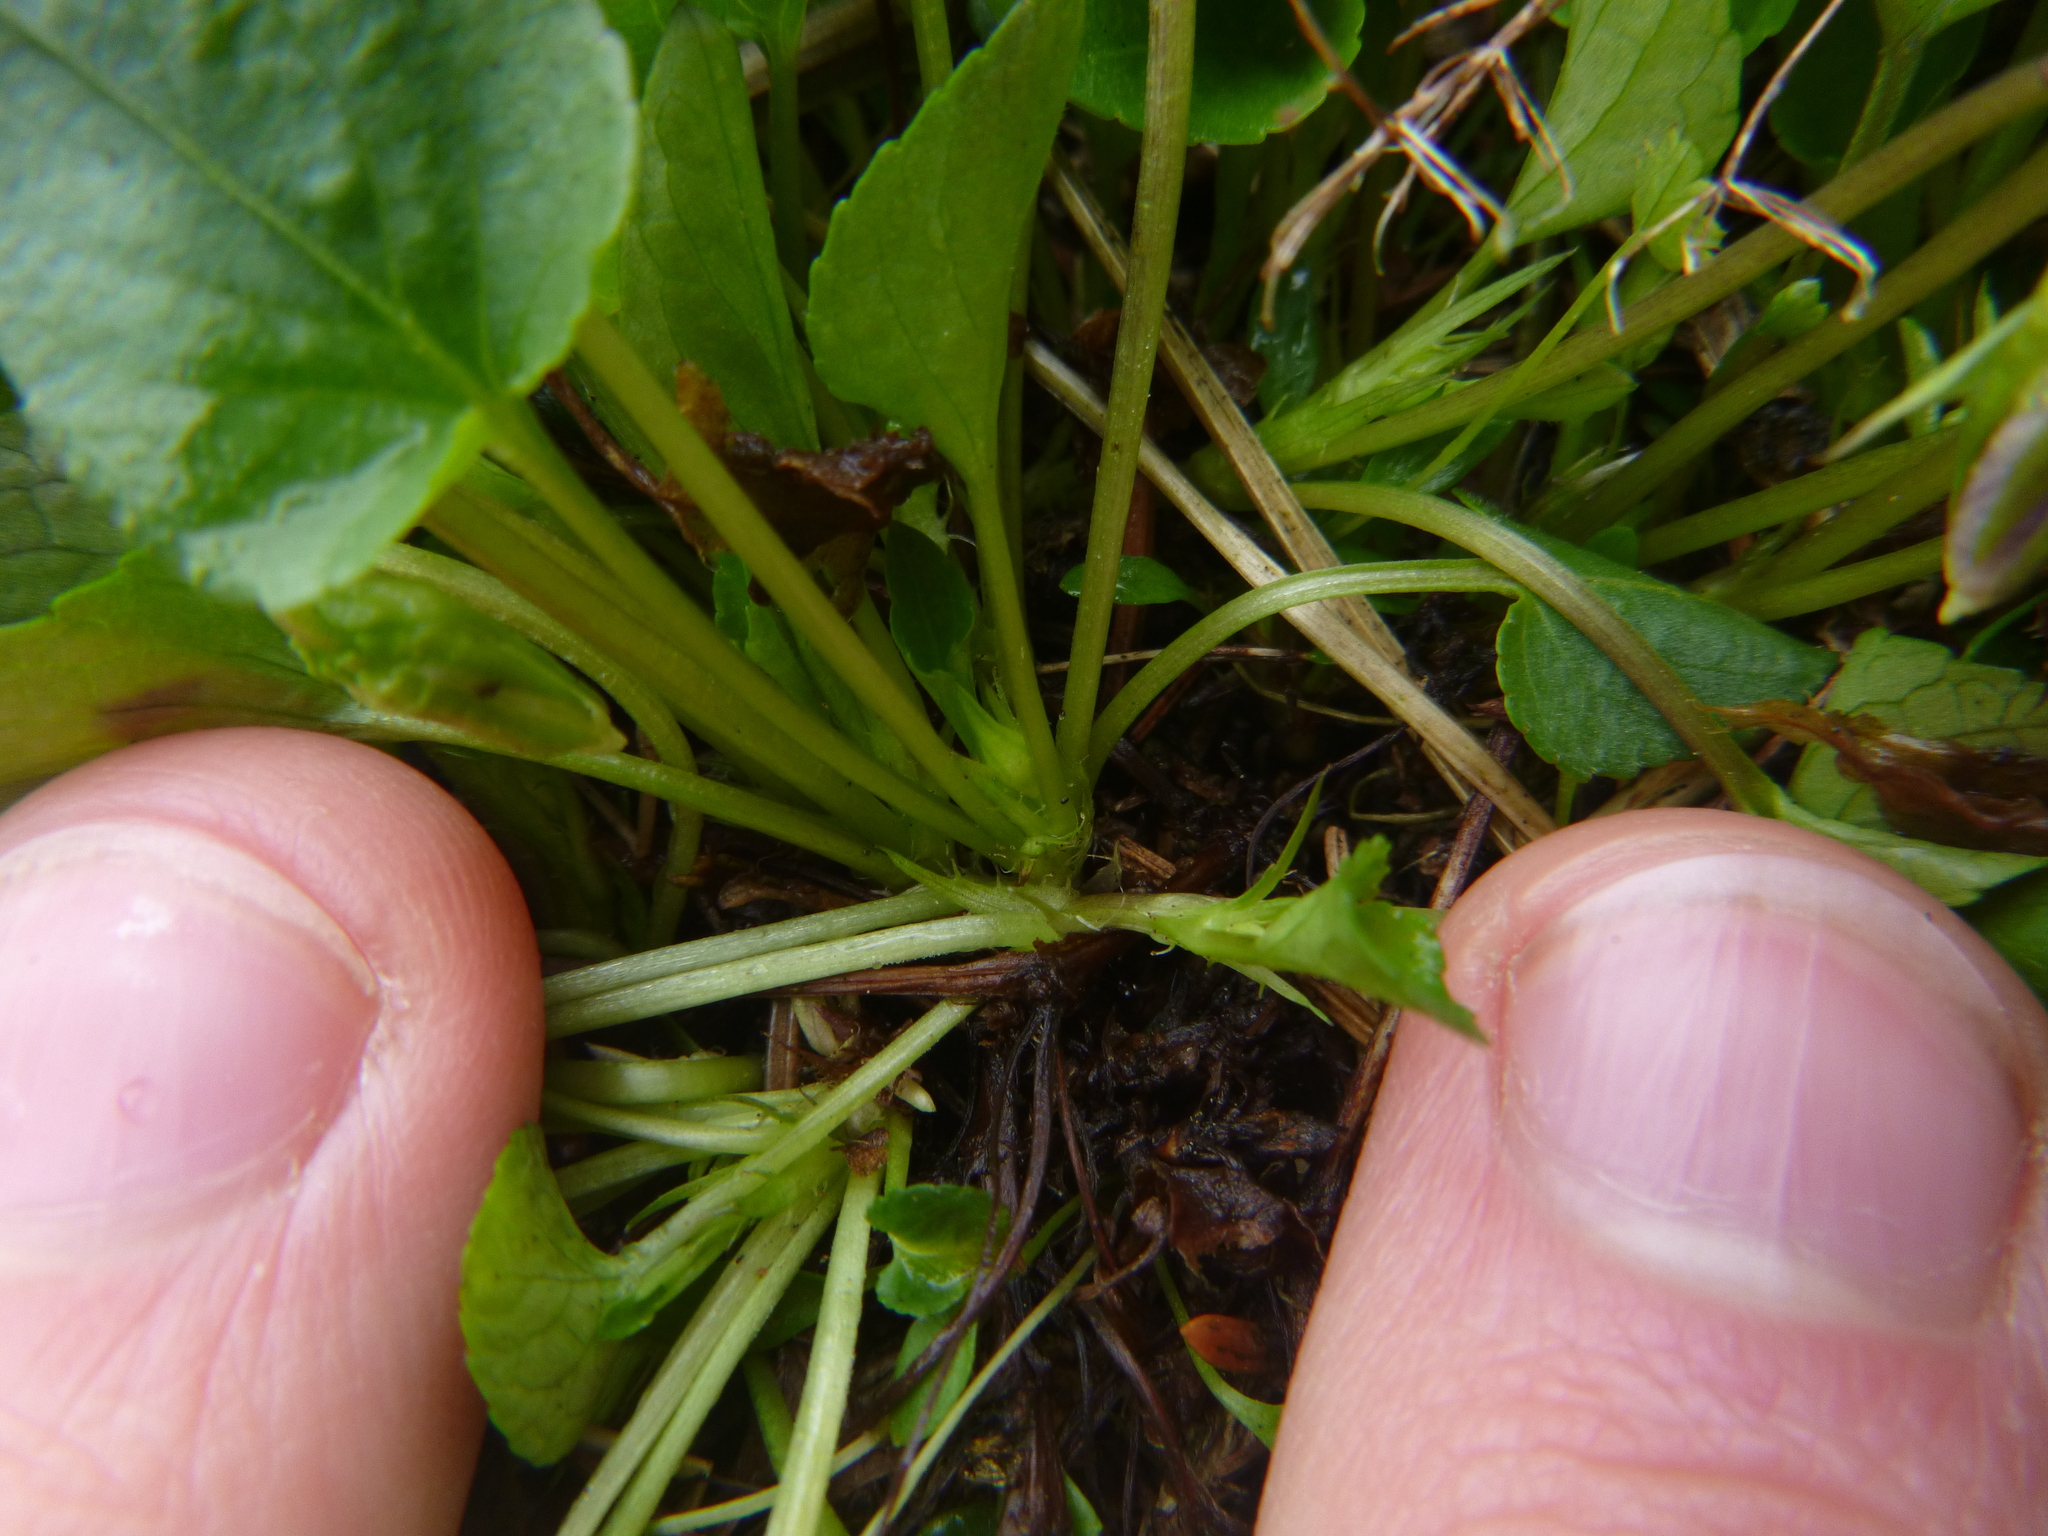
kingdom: Plantae
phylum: Tracheophyta
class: Magnoliopsida
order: Malpighiales
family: Violaceae
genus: Viola
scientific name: Viola riviniana
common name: Common dog-violet
